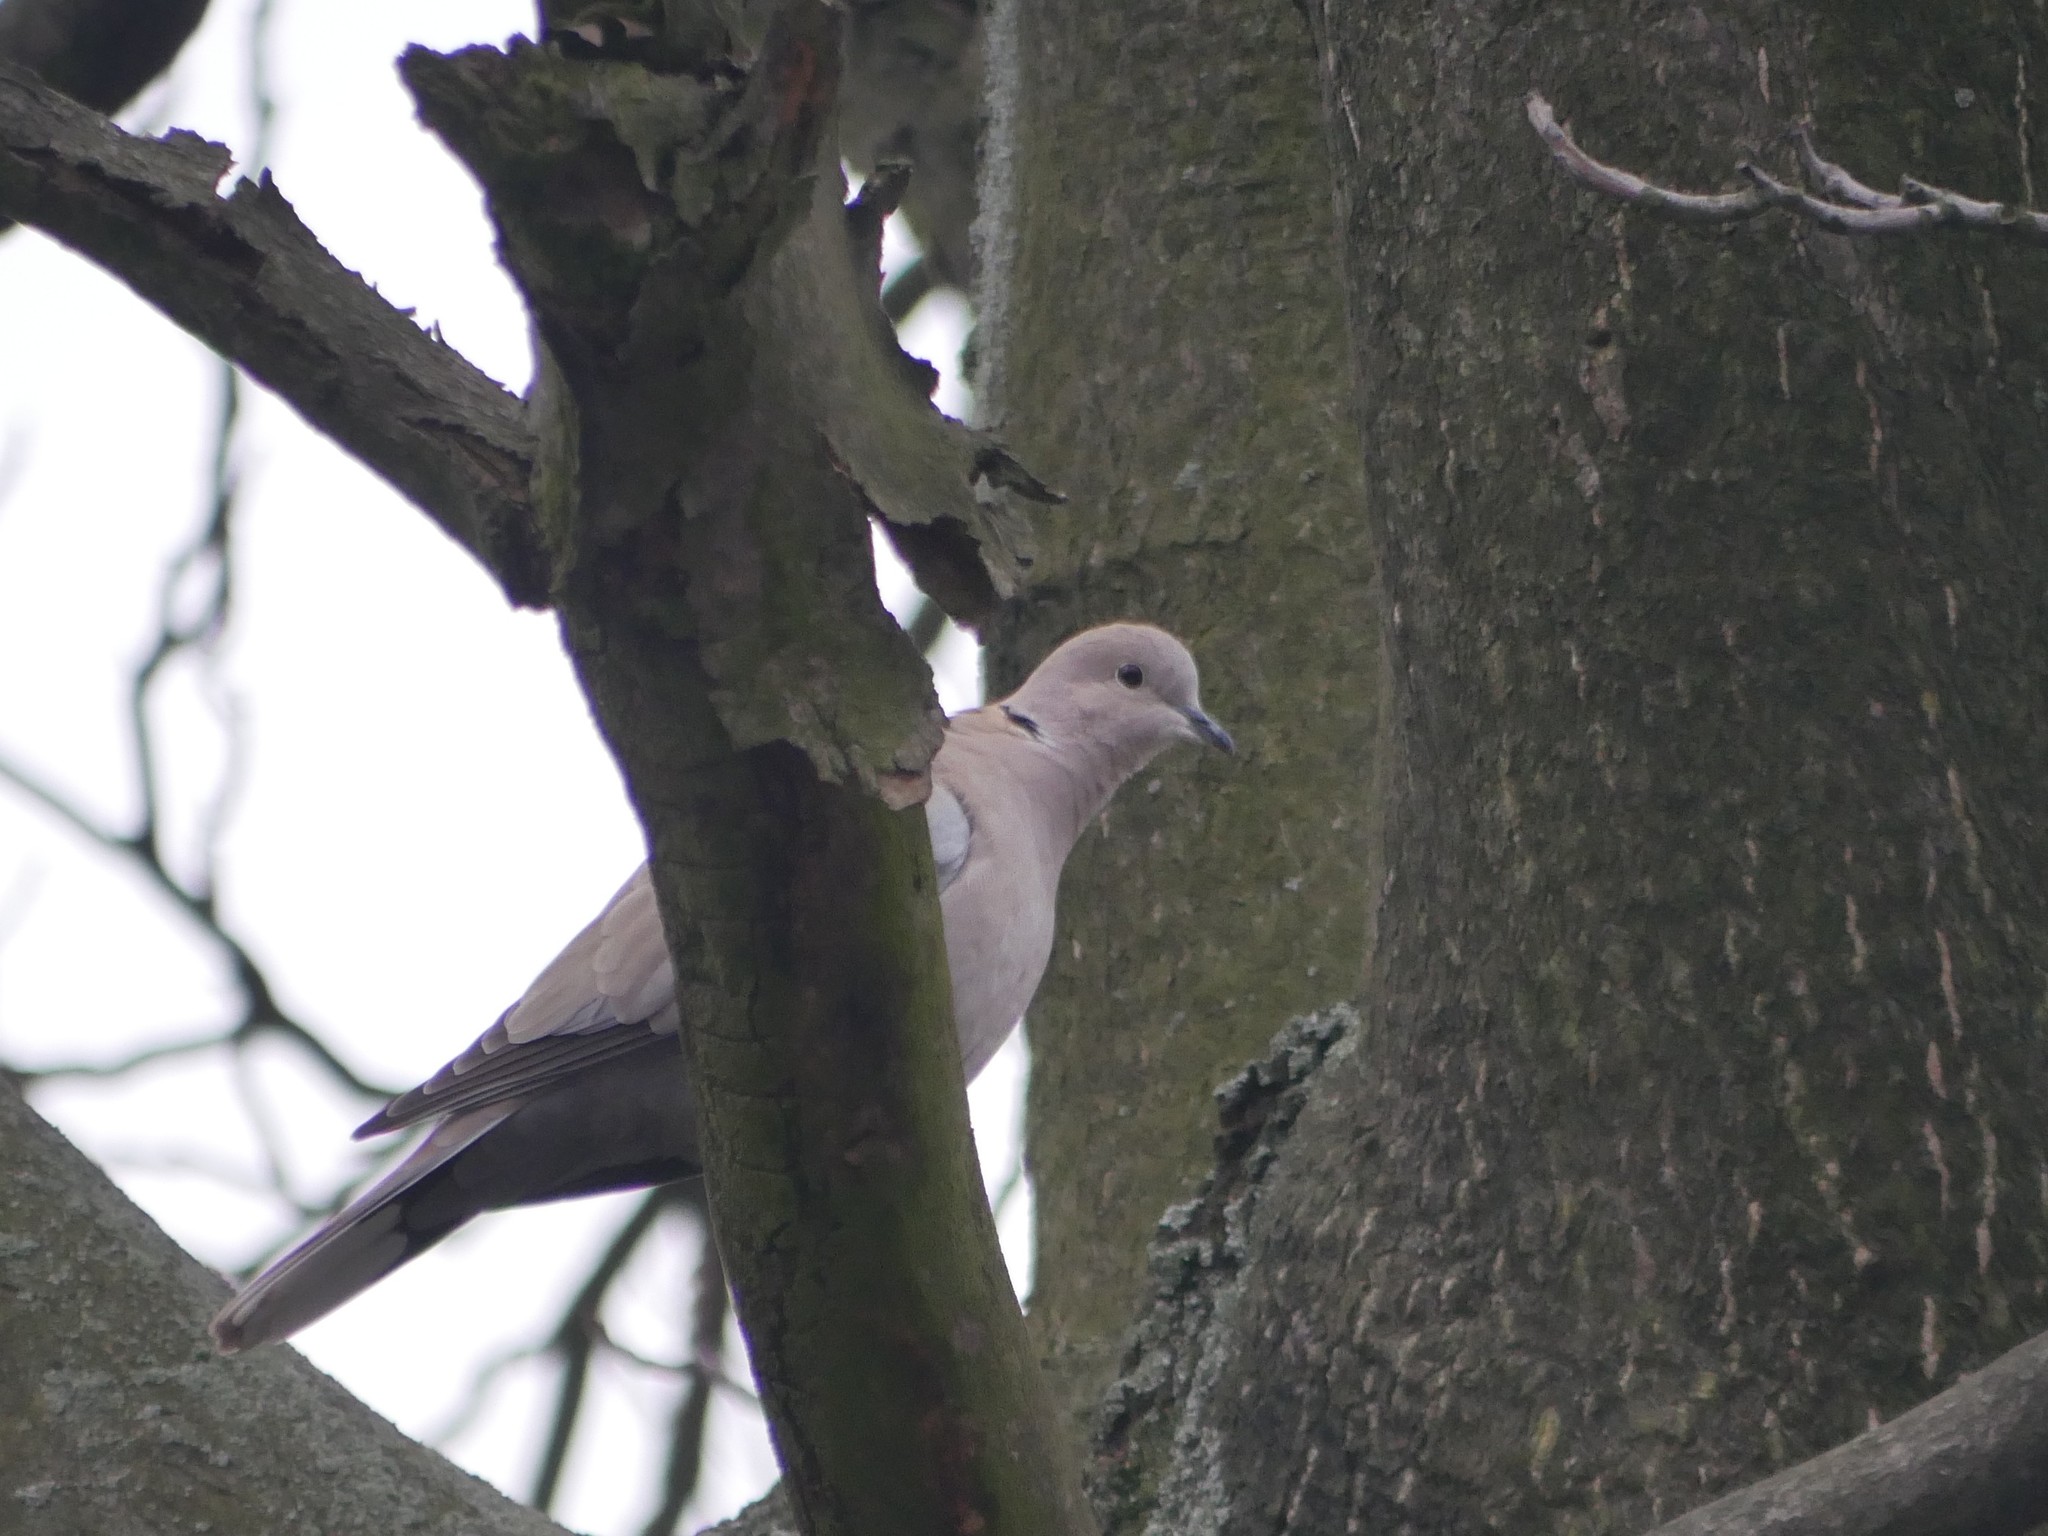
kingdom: Animalia
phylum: Chordata
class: Aves
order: Columbiformes
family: Columbidae
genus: Streptopelia
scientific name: Streptopelia decaocto
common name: Eurasian collared dove
